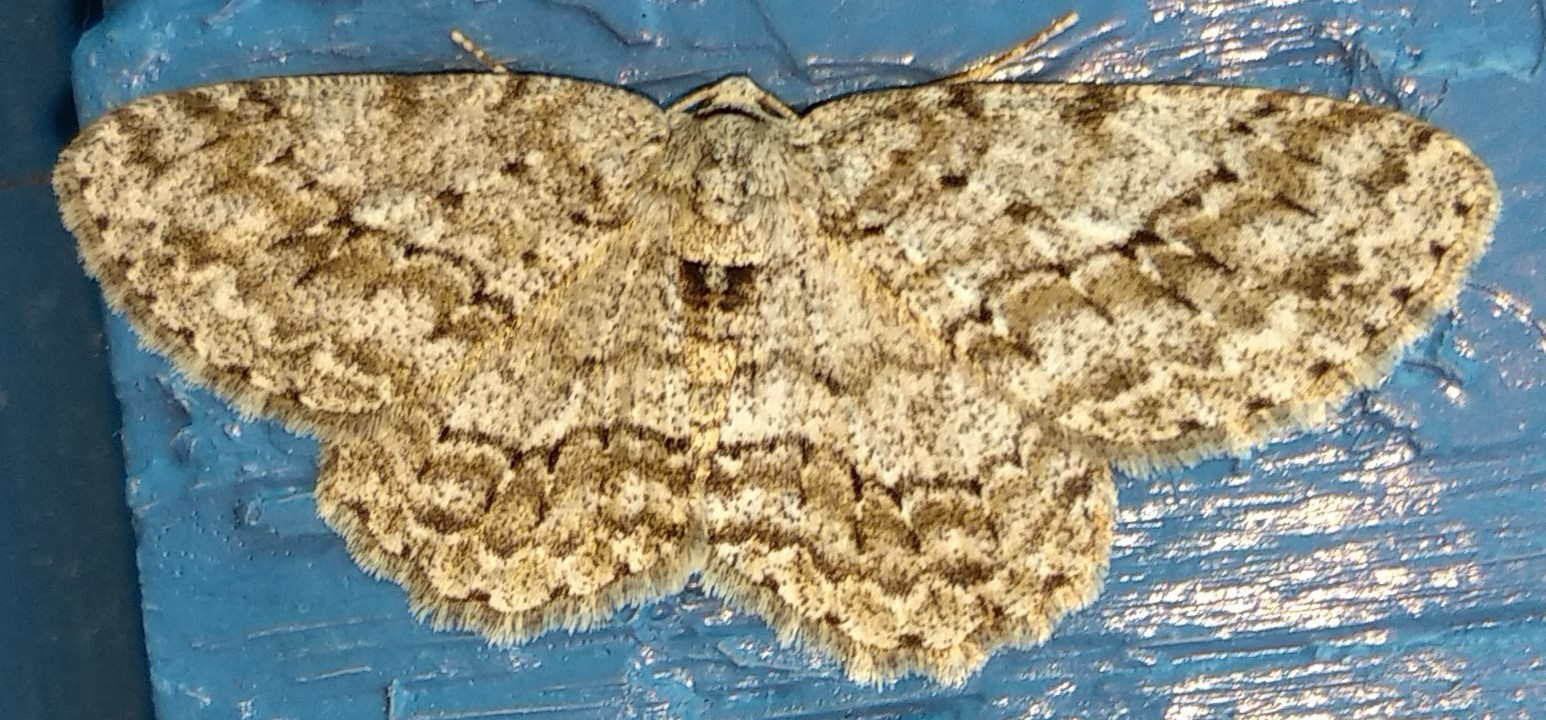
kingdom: Animalia
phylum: Arthropoda
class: Insecta
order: Lepidoptera
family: Geometridae
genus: Ectropis
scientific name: Ectropis crepuscularia
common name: Engrailed
